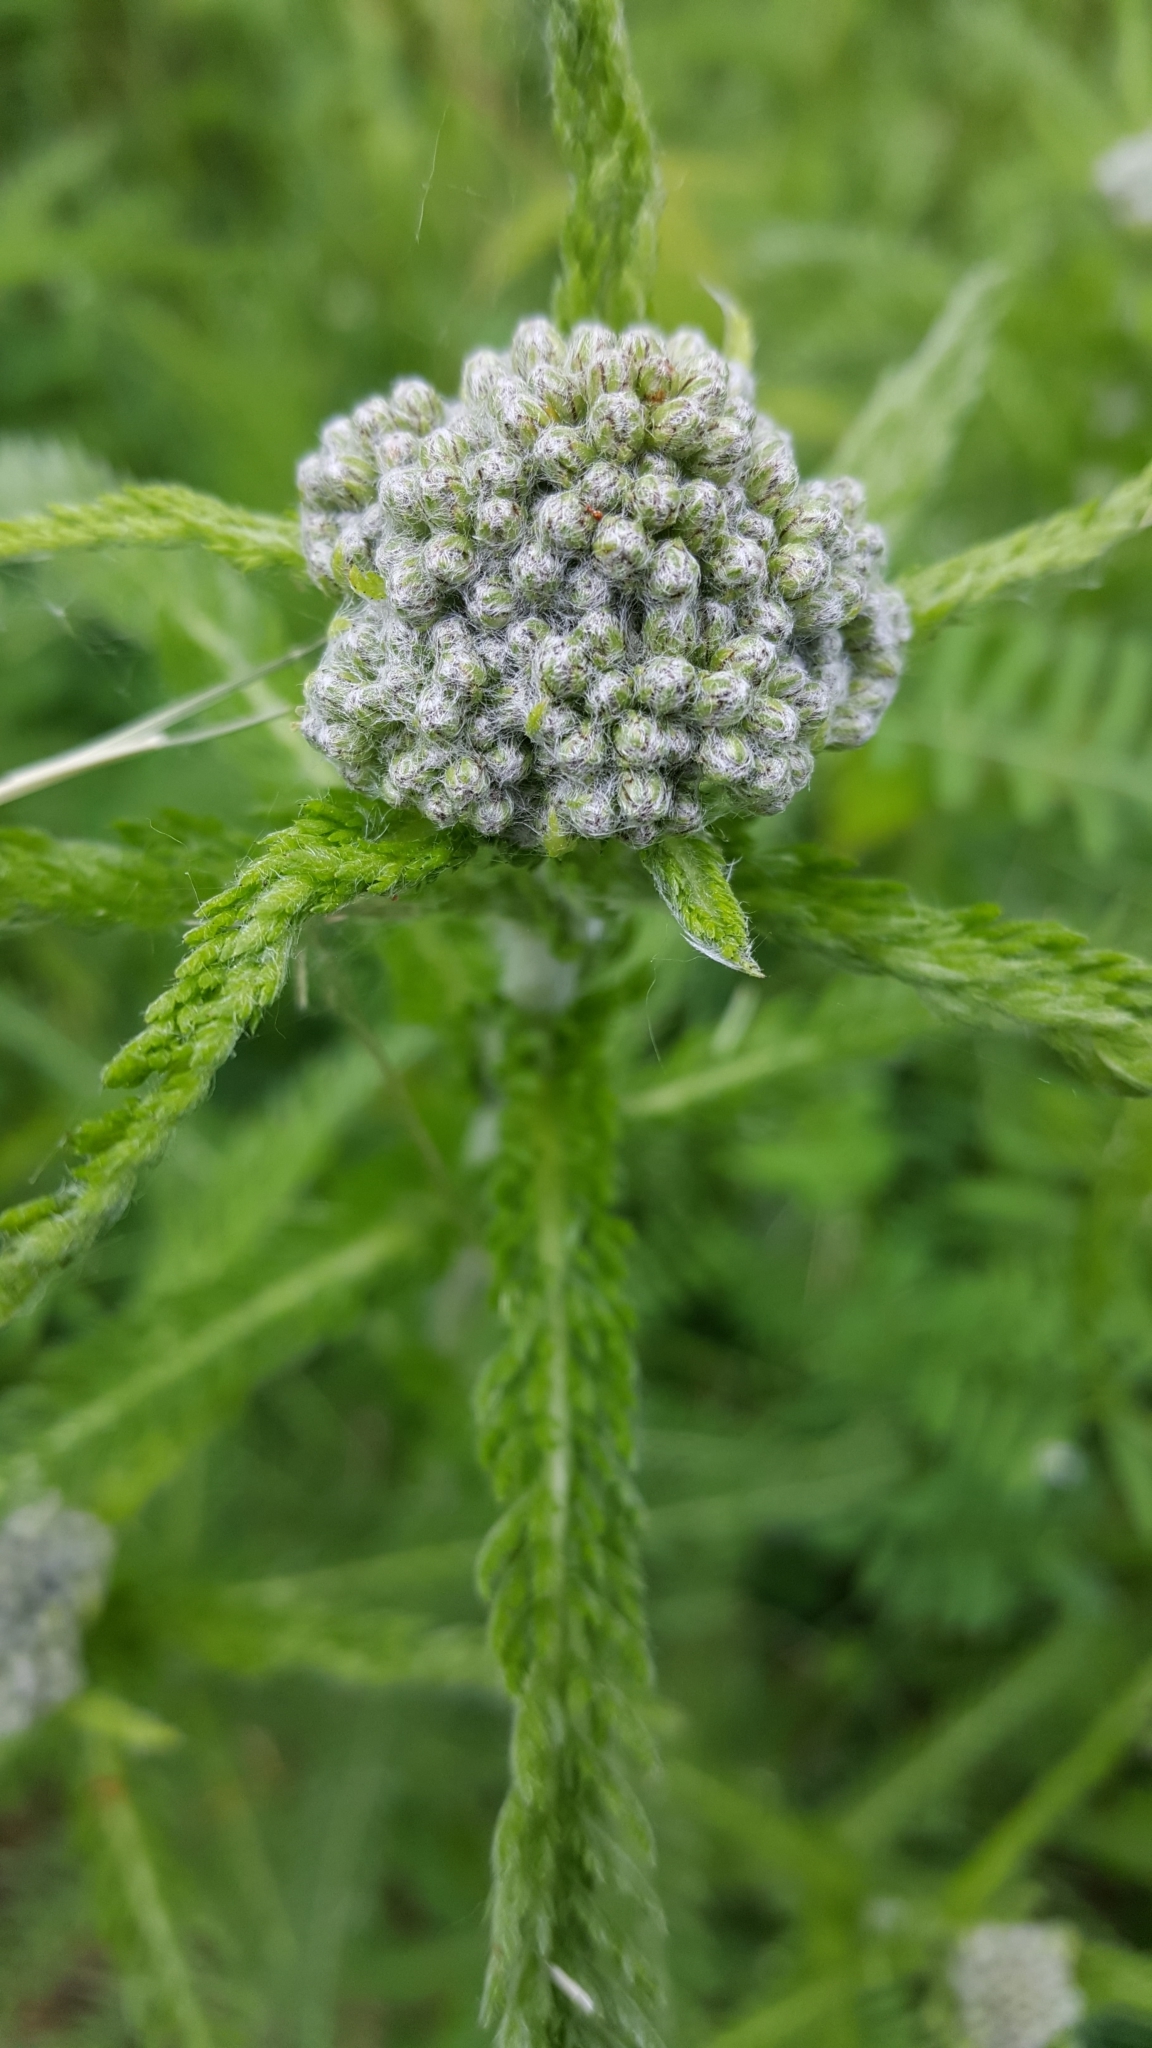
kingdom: Plantae
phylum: Tracheophyta
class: Magnoliopsida
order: Asterales
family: Asteraceae
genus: Achillea
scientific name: Achillea millefolium
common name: Yarrow
